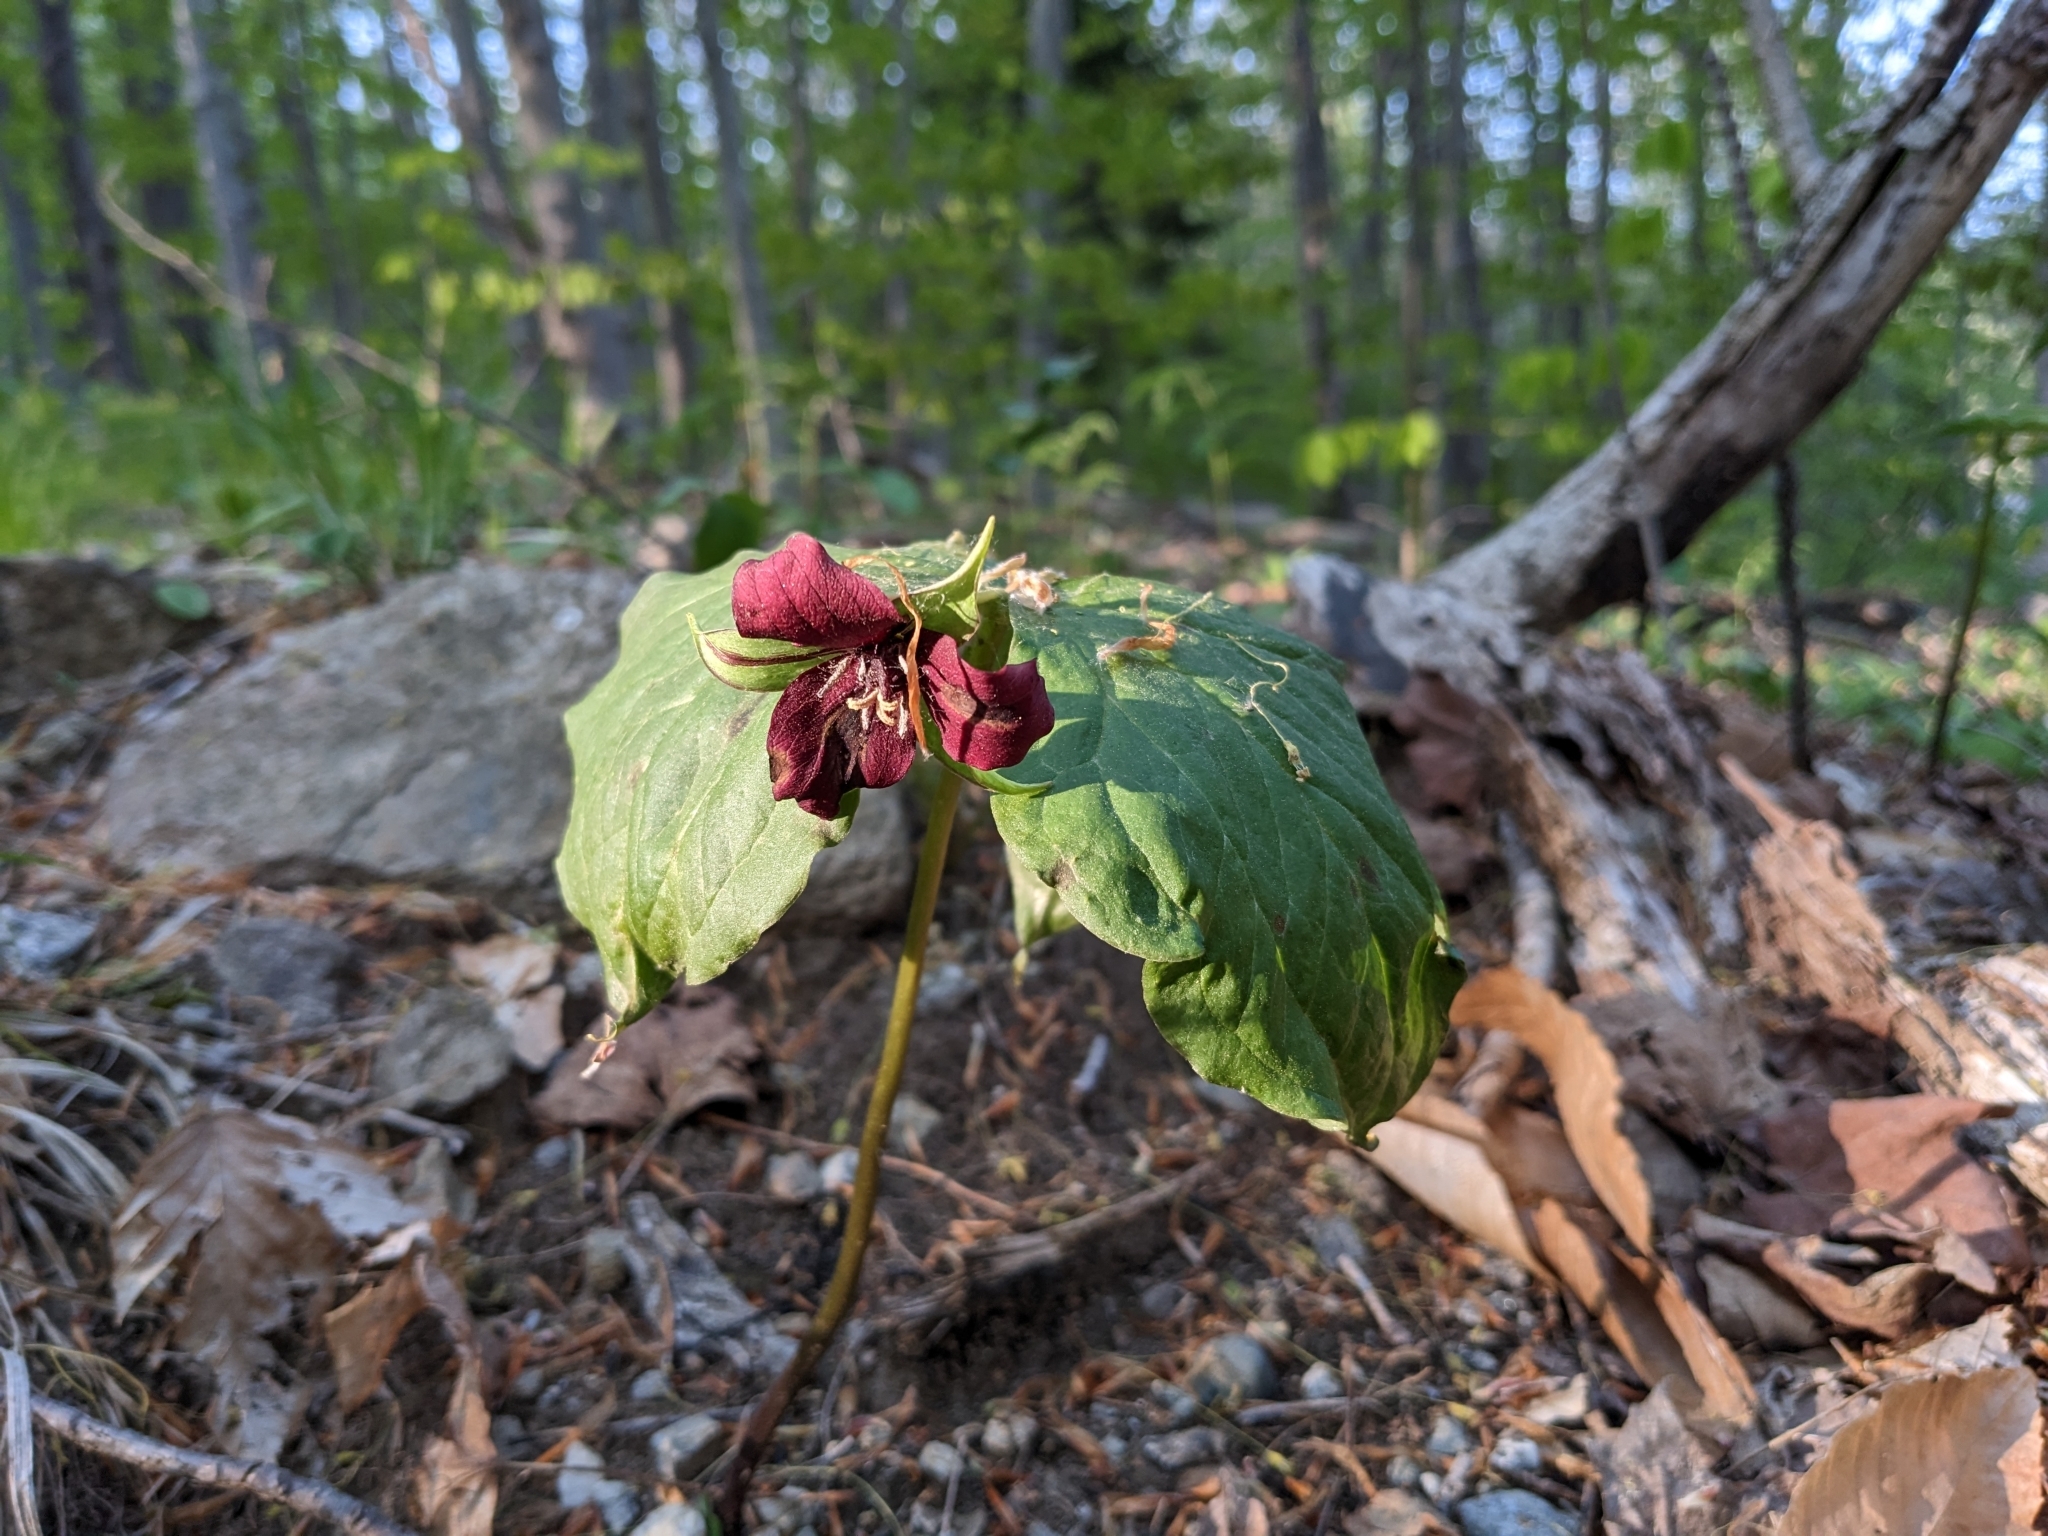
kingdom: Plantae
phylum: Tracheophyta
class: Liliopsida
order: Liliales
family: Melanthiaceae
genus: Trillium
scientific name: Trillium erectum
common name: Purple trillium
